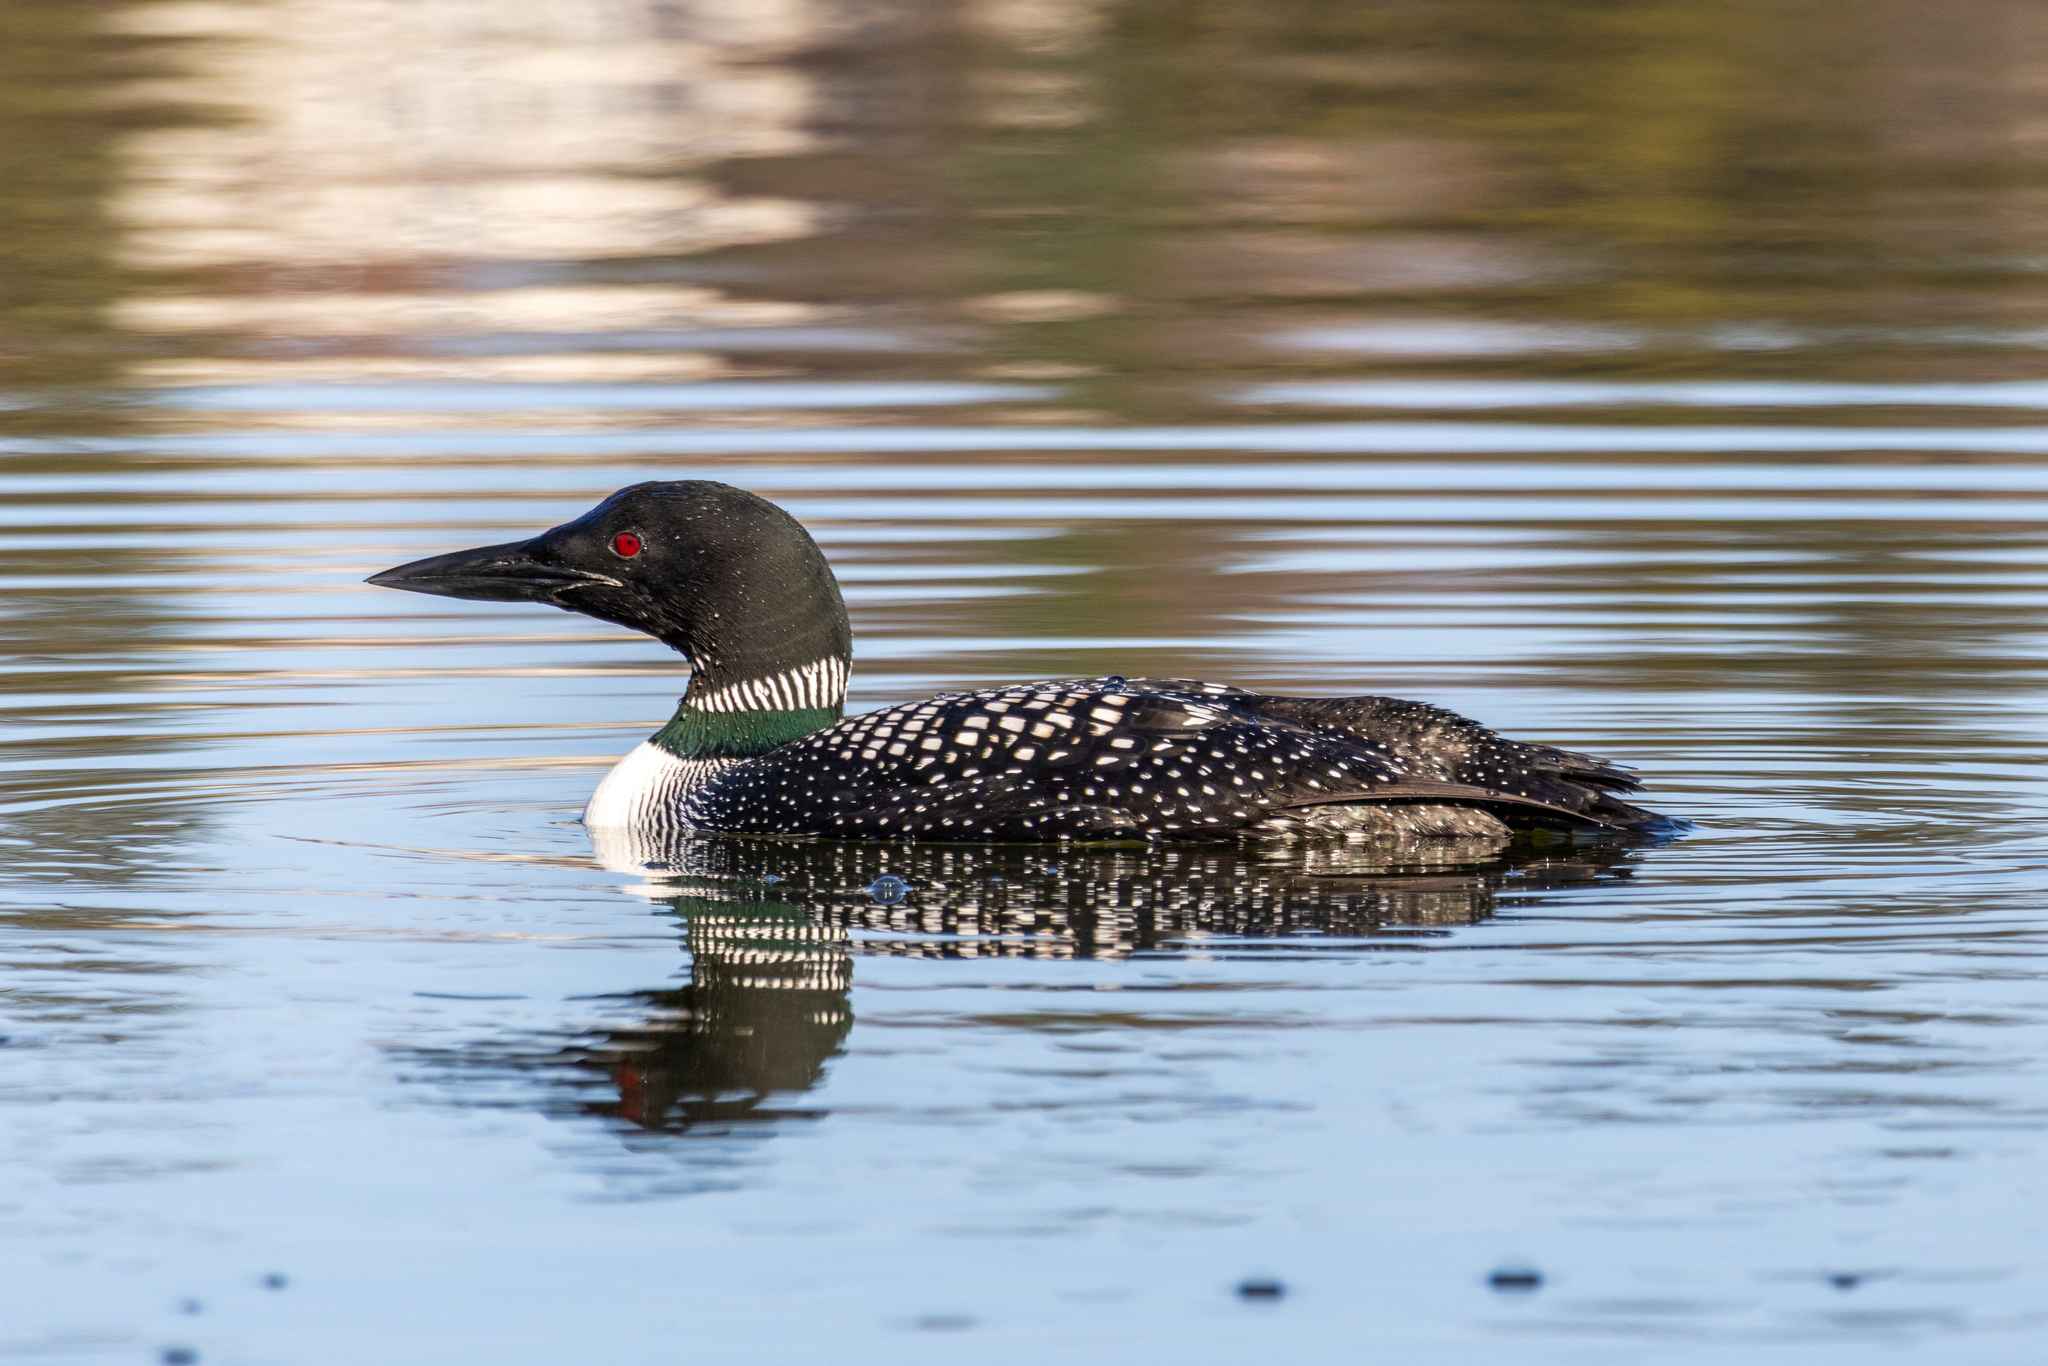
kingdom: Animalia
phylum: Chordata
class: Aves
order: Gaviiformes
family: Gaviidae
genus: Gavia
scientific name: Gavia immer
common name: Common loon
